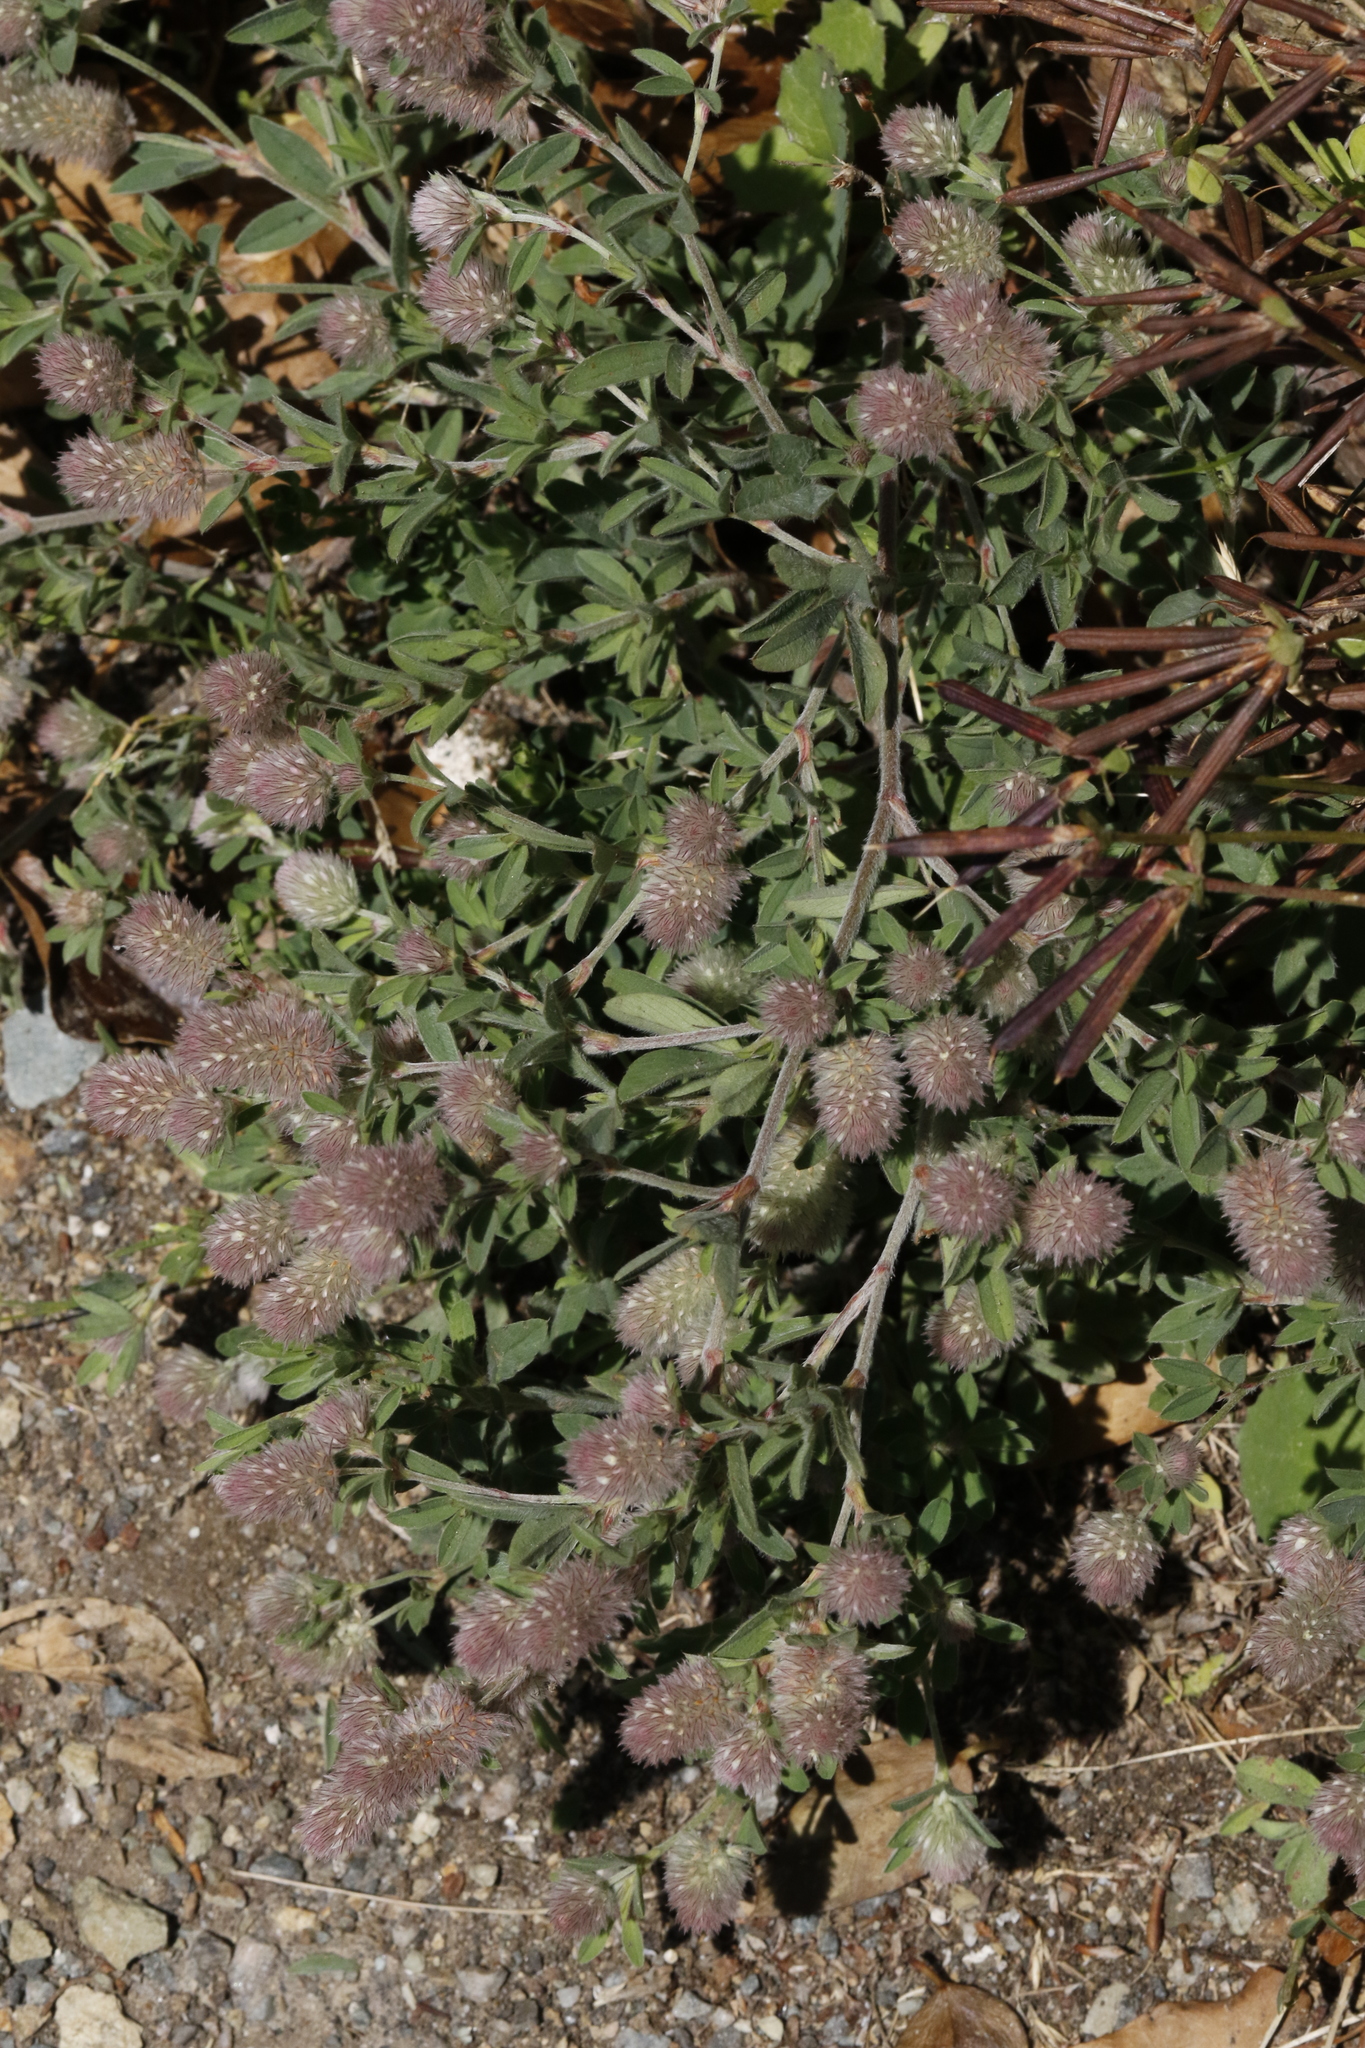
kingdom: Plantae
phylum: Tracheophyta
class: Magnoliopsida
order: Fabales
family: Fabaceae
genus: Trifolium
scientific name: Trifolium arvense
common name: Hare's-foot clover
